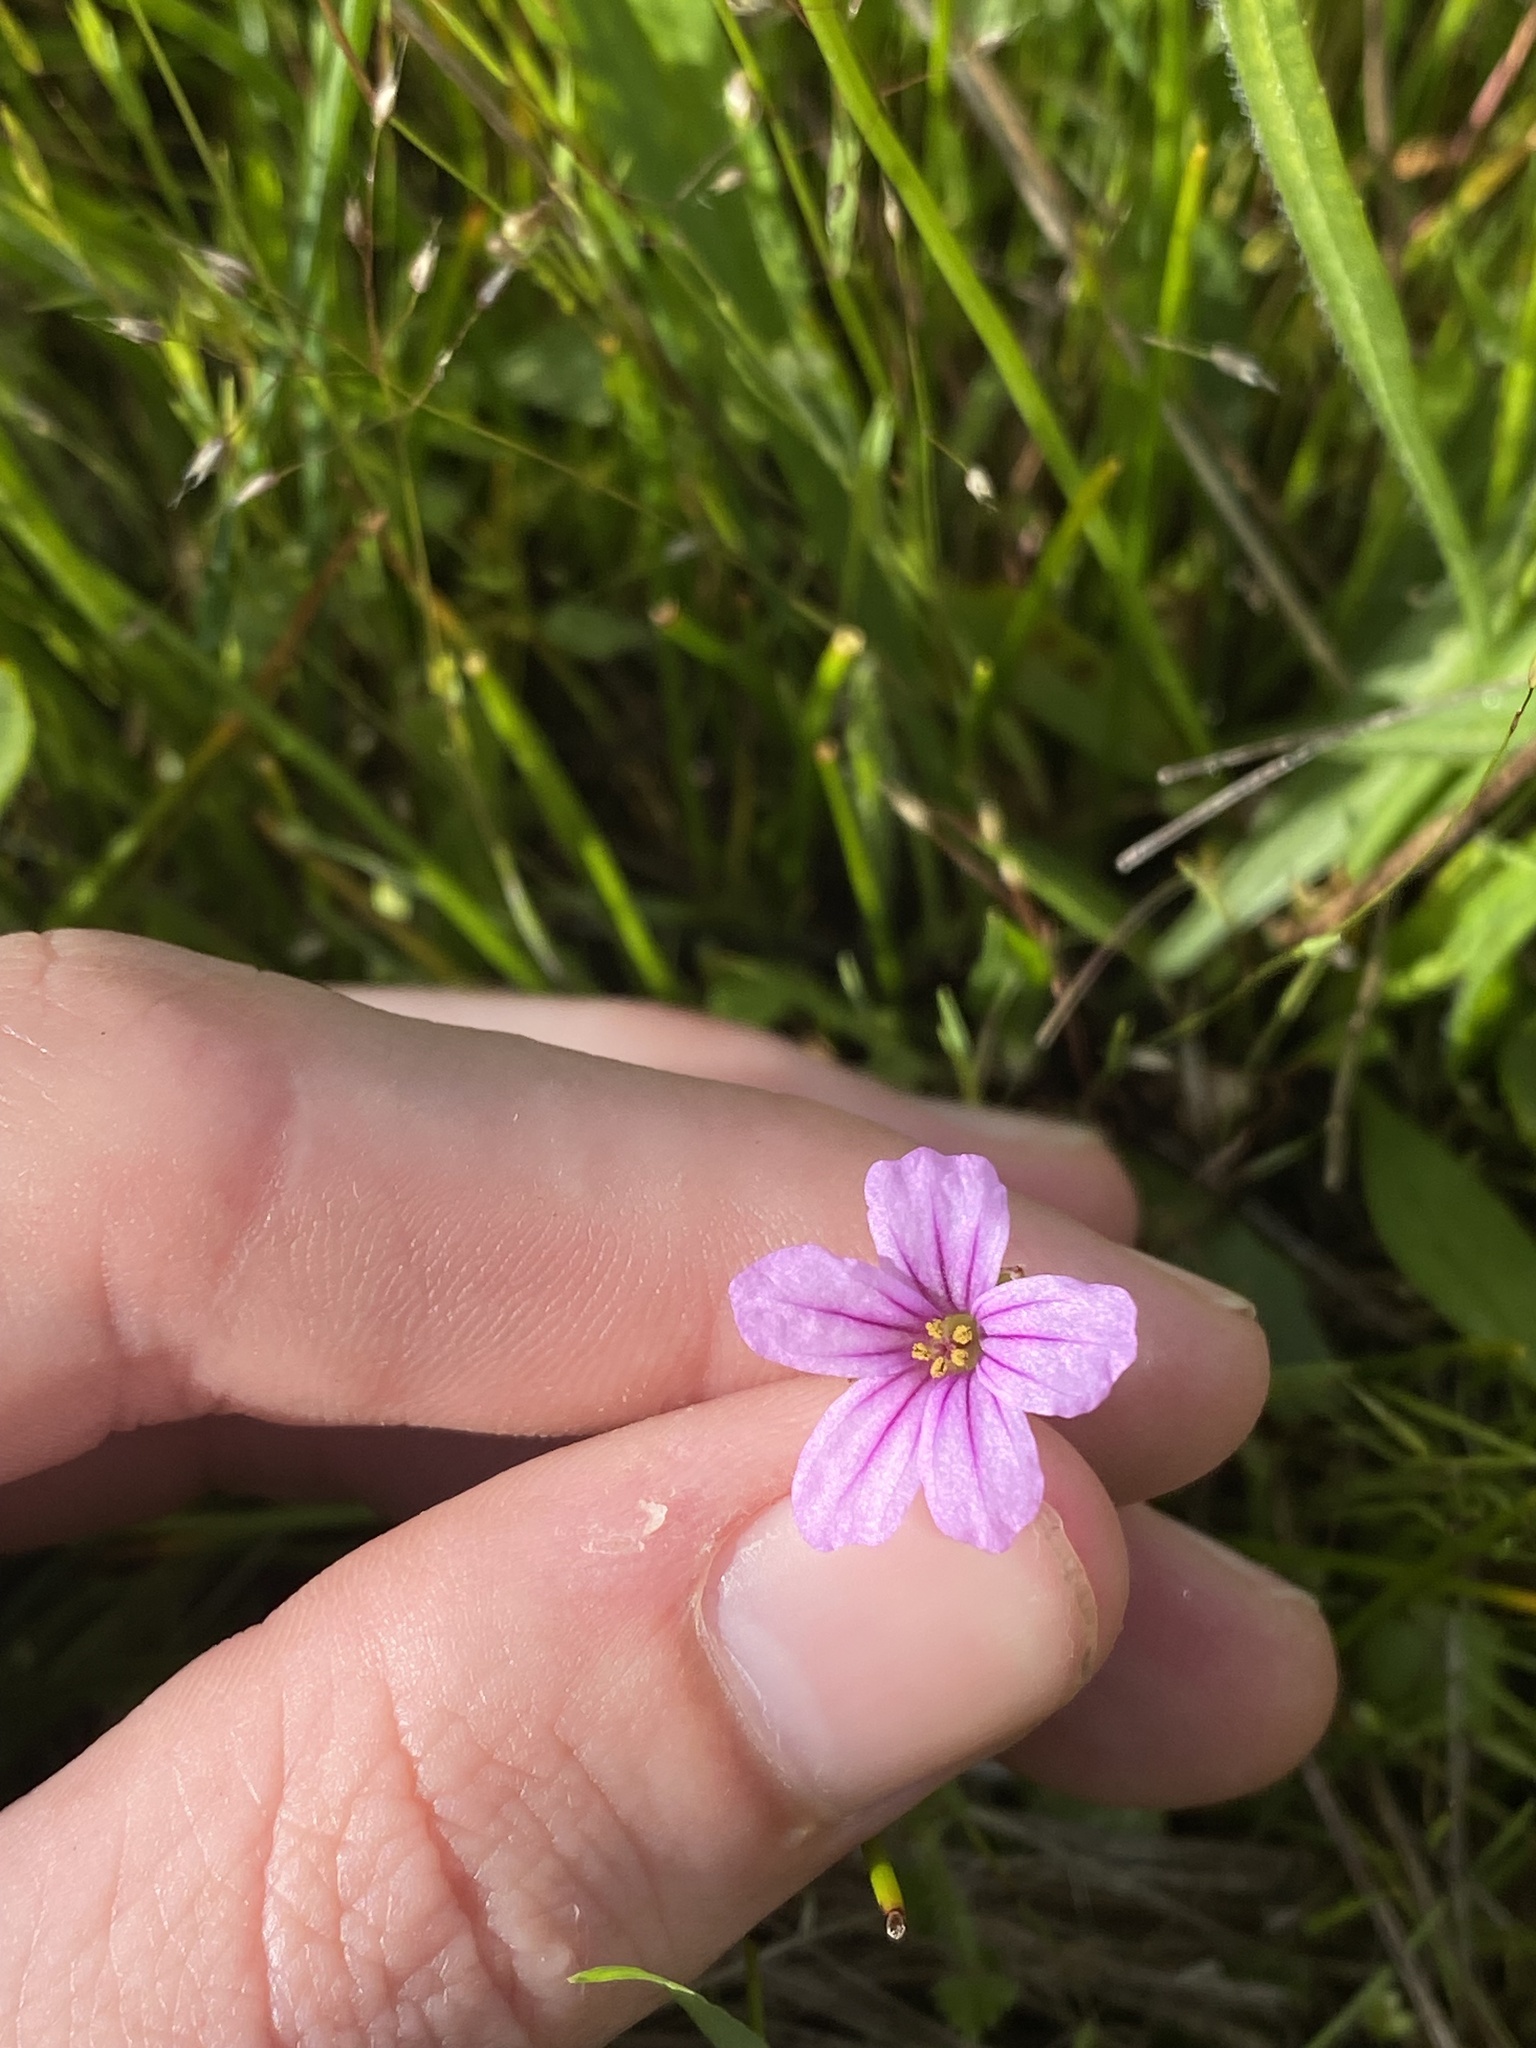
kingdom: Plantae
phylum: Tracheophyta
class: Magnoliopsida
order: Geraniales
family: Geraniaceae
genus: Erodium
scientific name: Erodium botrys
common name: Mediterranean stork's-bill
